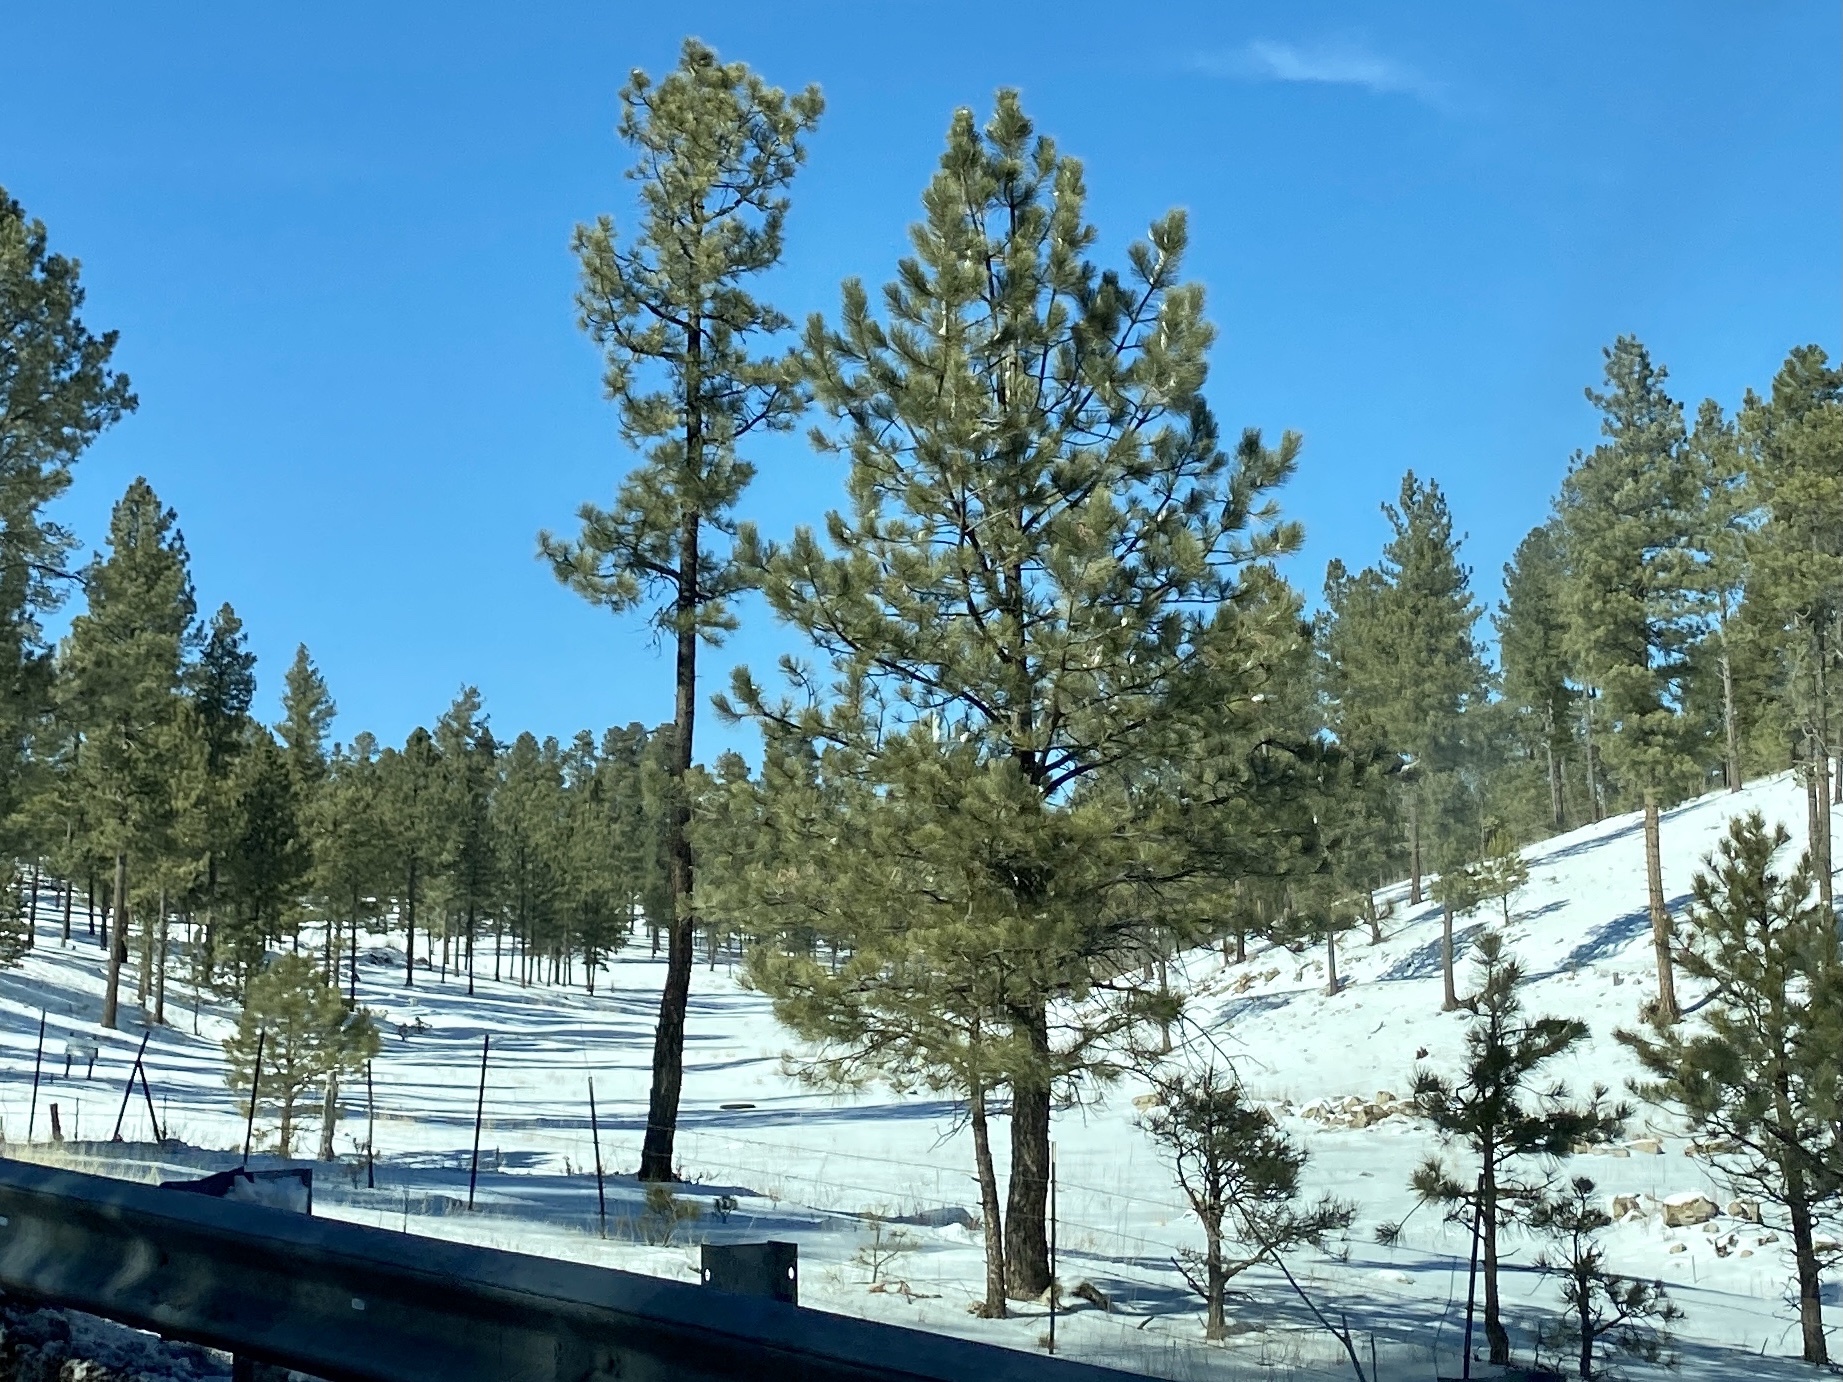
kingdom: Plantae
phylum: Tracheophyta
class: Pinopsida
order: Pinales
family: Pinaceae
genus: Pinus
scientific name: Pinus ponderosa
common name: Western yellow-pine
